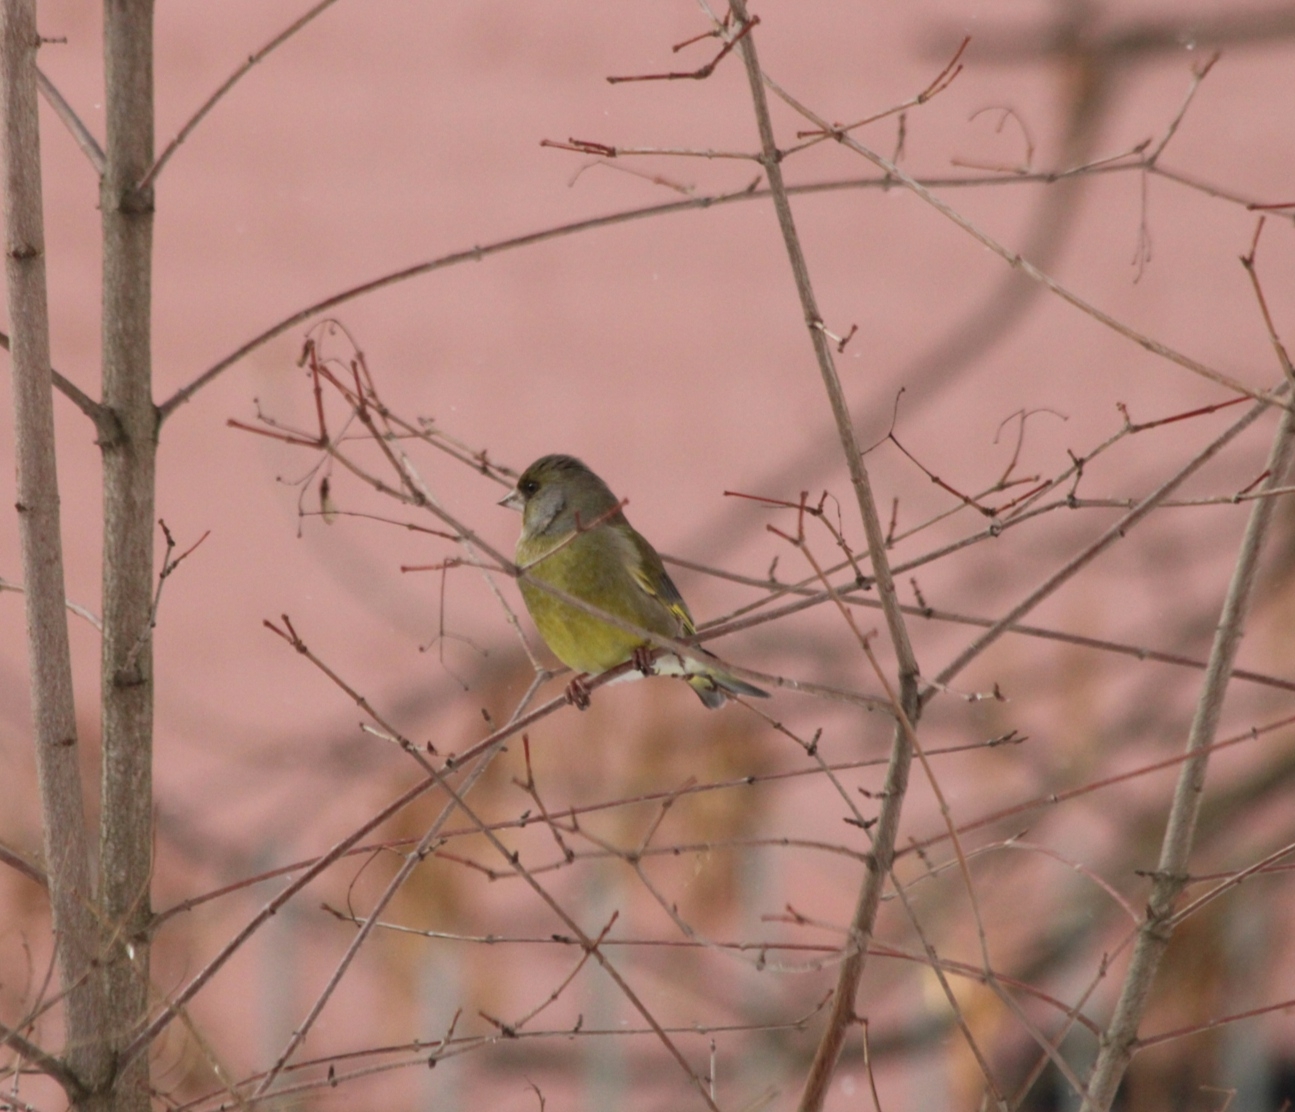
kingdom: Plantae
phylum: Tracheophyta
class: Liliopsida
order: Poales
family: Poaceae
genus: Chloris
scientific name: Chloris chloris
